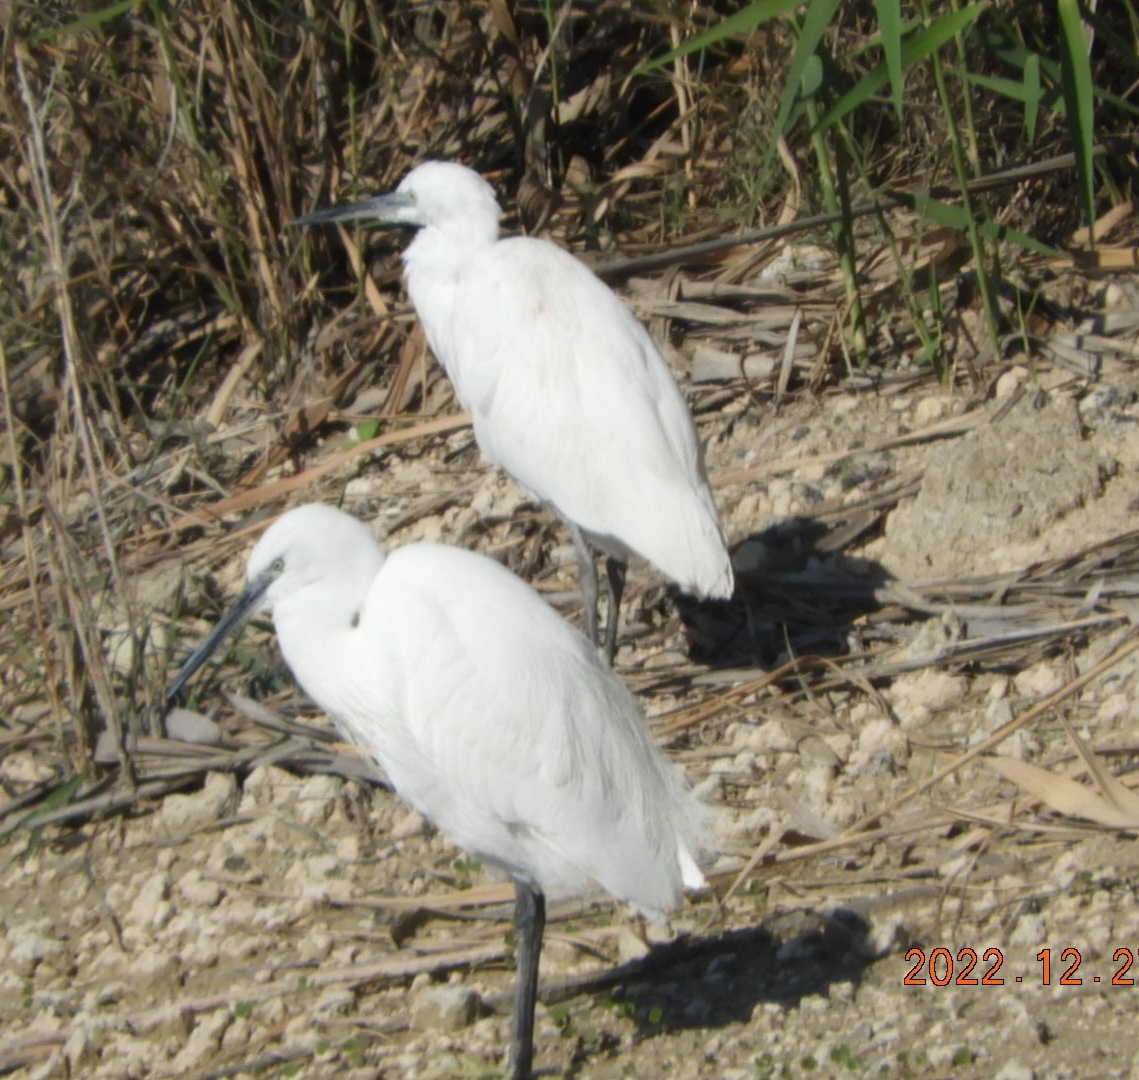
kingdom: Animalia
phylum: Chordata
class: Aves
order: Pelecaniformes
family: Ardeidae
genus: Egretta
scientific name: Egretta garzetta
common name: Little egret
